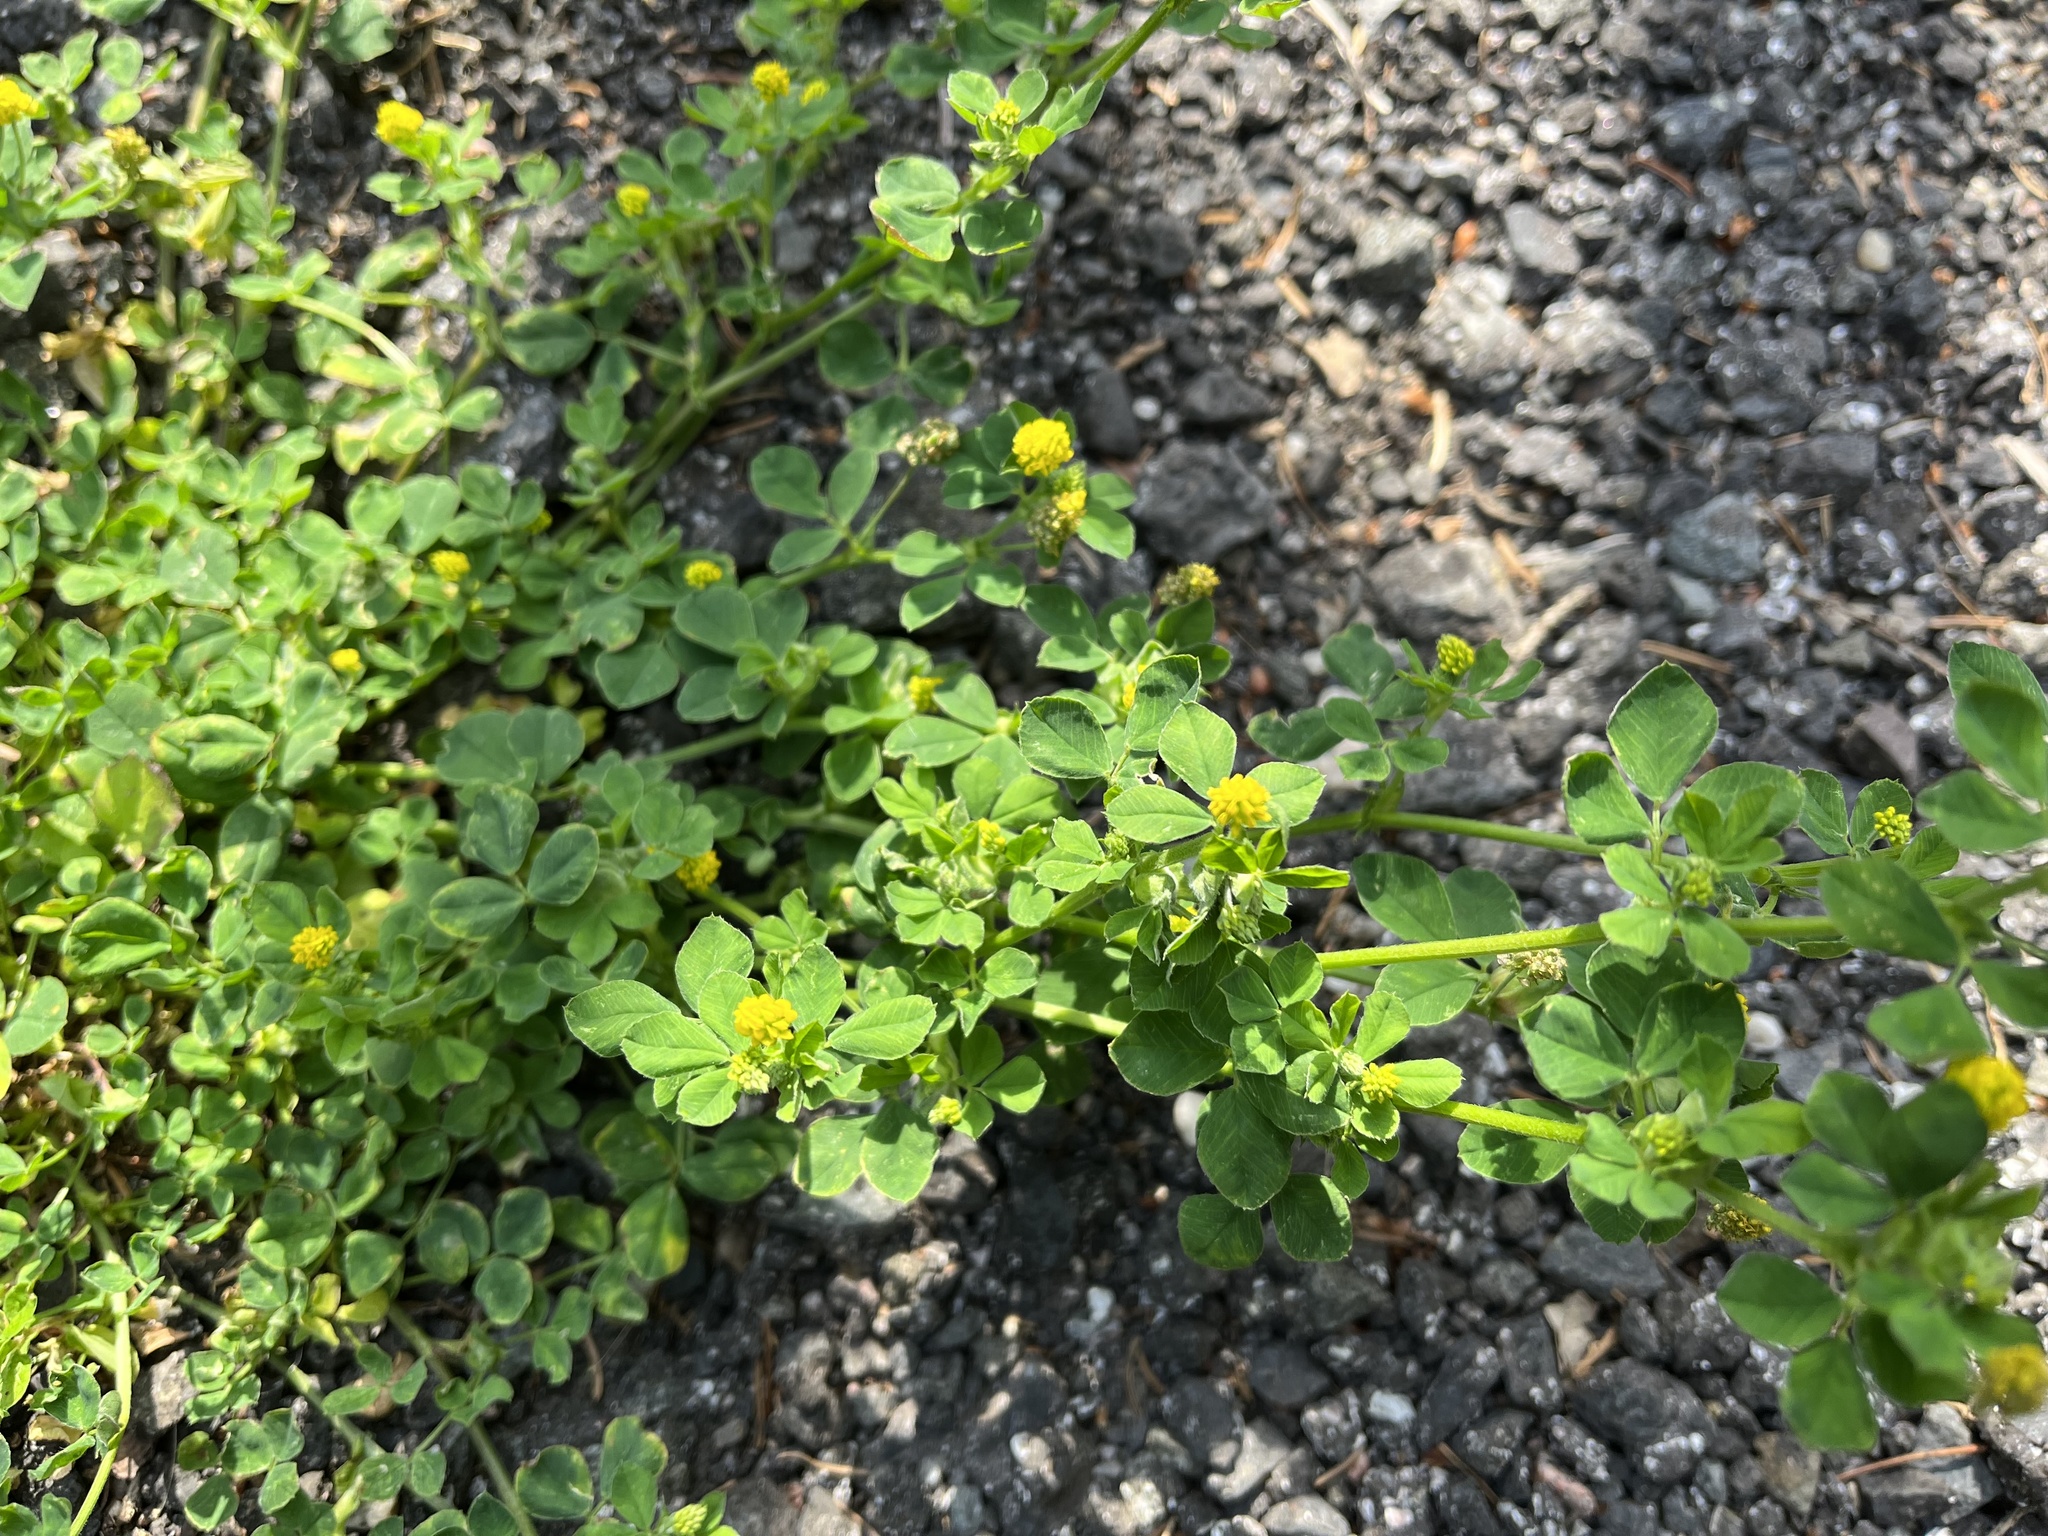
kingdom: Plantae
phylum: Tracheophyta
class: Magnoliopsida
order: Fabales
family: Fabaceae
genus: Medicago
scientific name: Medicago lupulina
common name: Black medick
